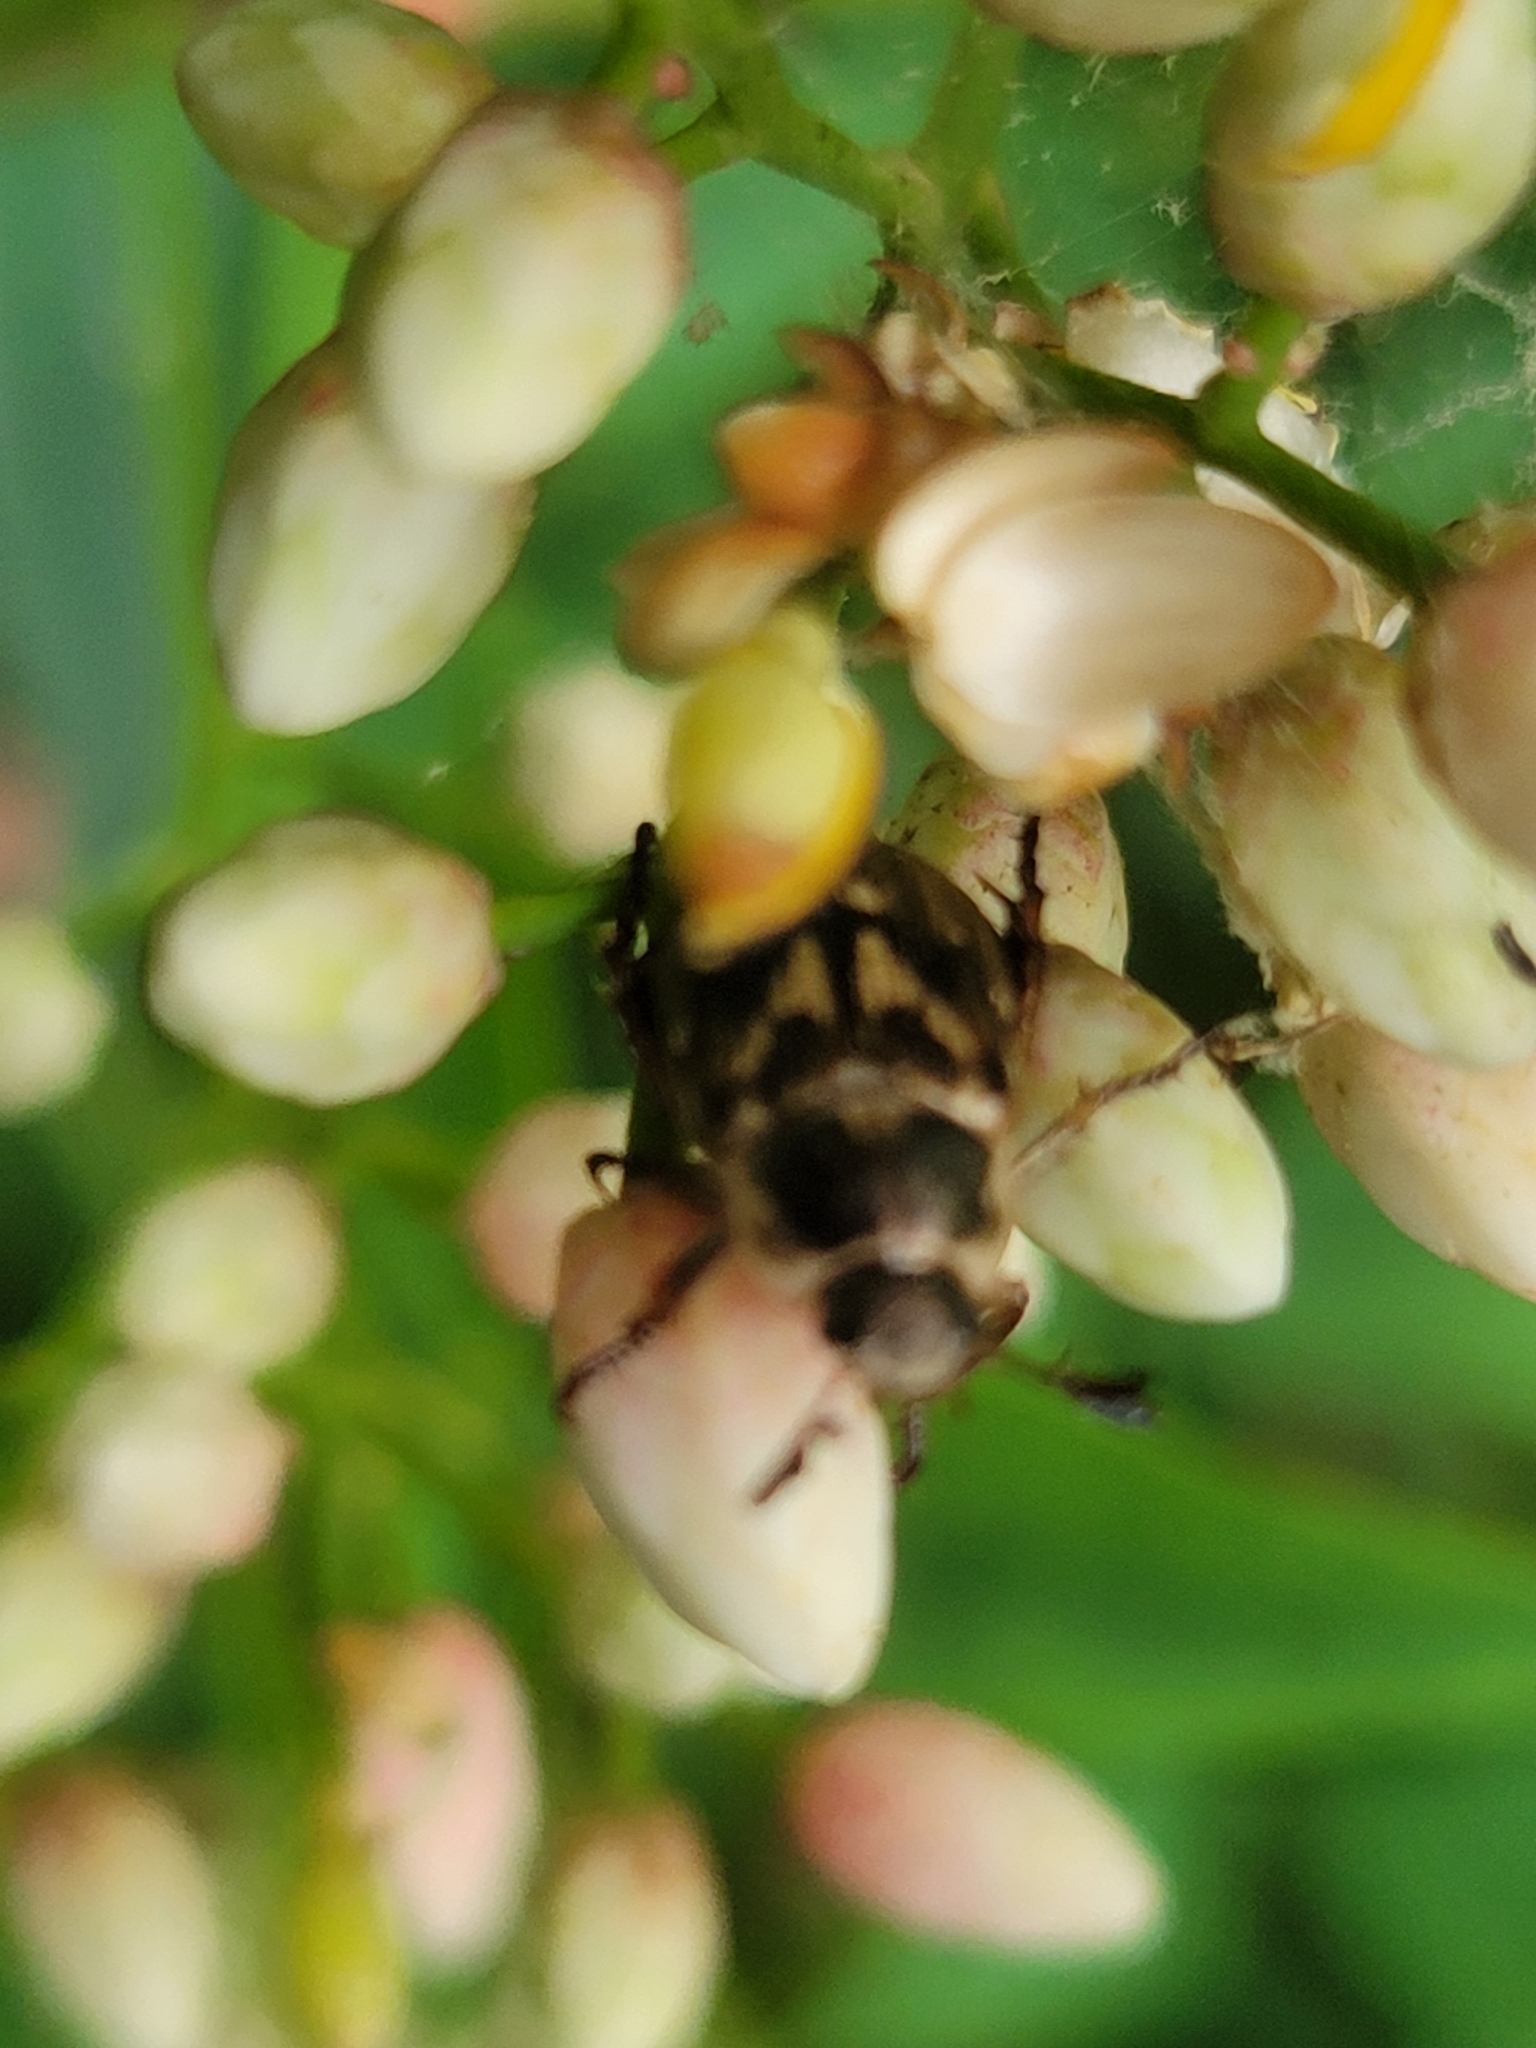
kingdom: Animalia
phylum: Arthropoda
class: Insecta
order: Coleoptera
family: Scarabaeidae
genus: Exomala
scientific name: Exomala orientalis
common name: Oriental beetle
